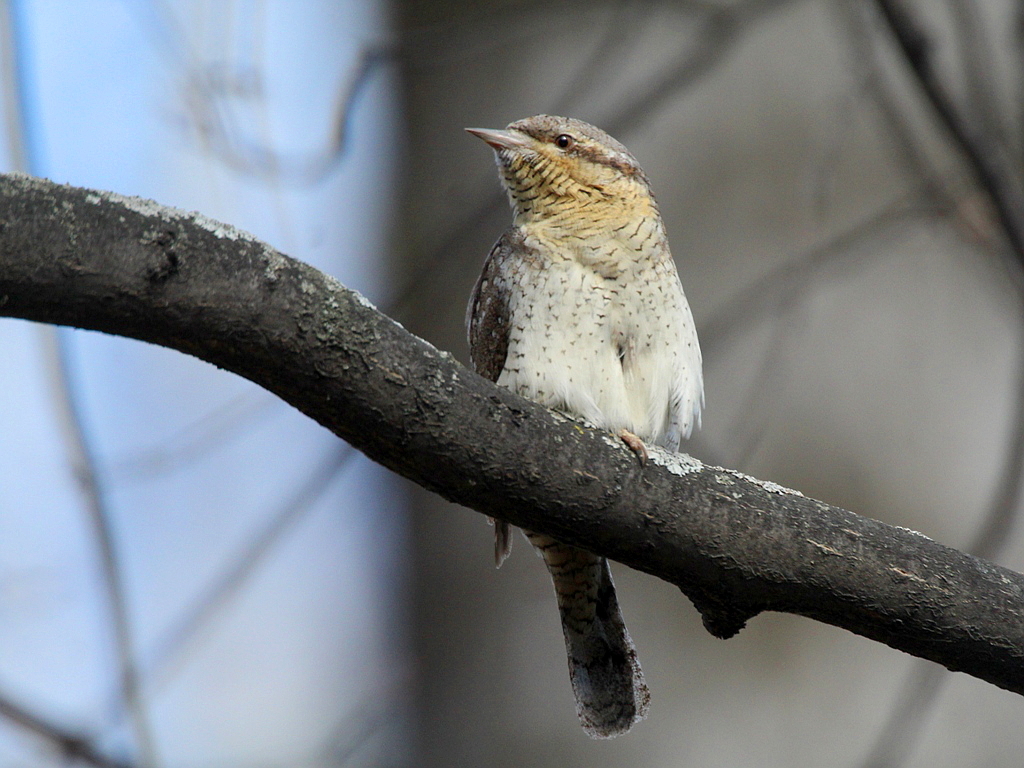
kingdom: Animalia
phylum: Chordata
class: Aves
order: Piciformes
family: Picidae
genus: Jynx
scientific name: Jynx torquilla
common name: Eurasian wryneck
